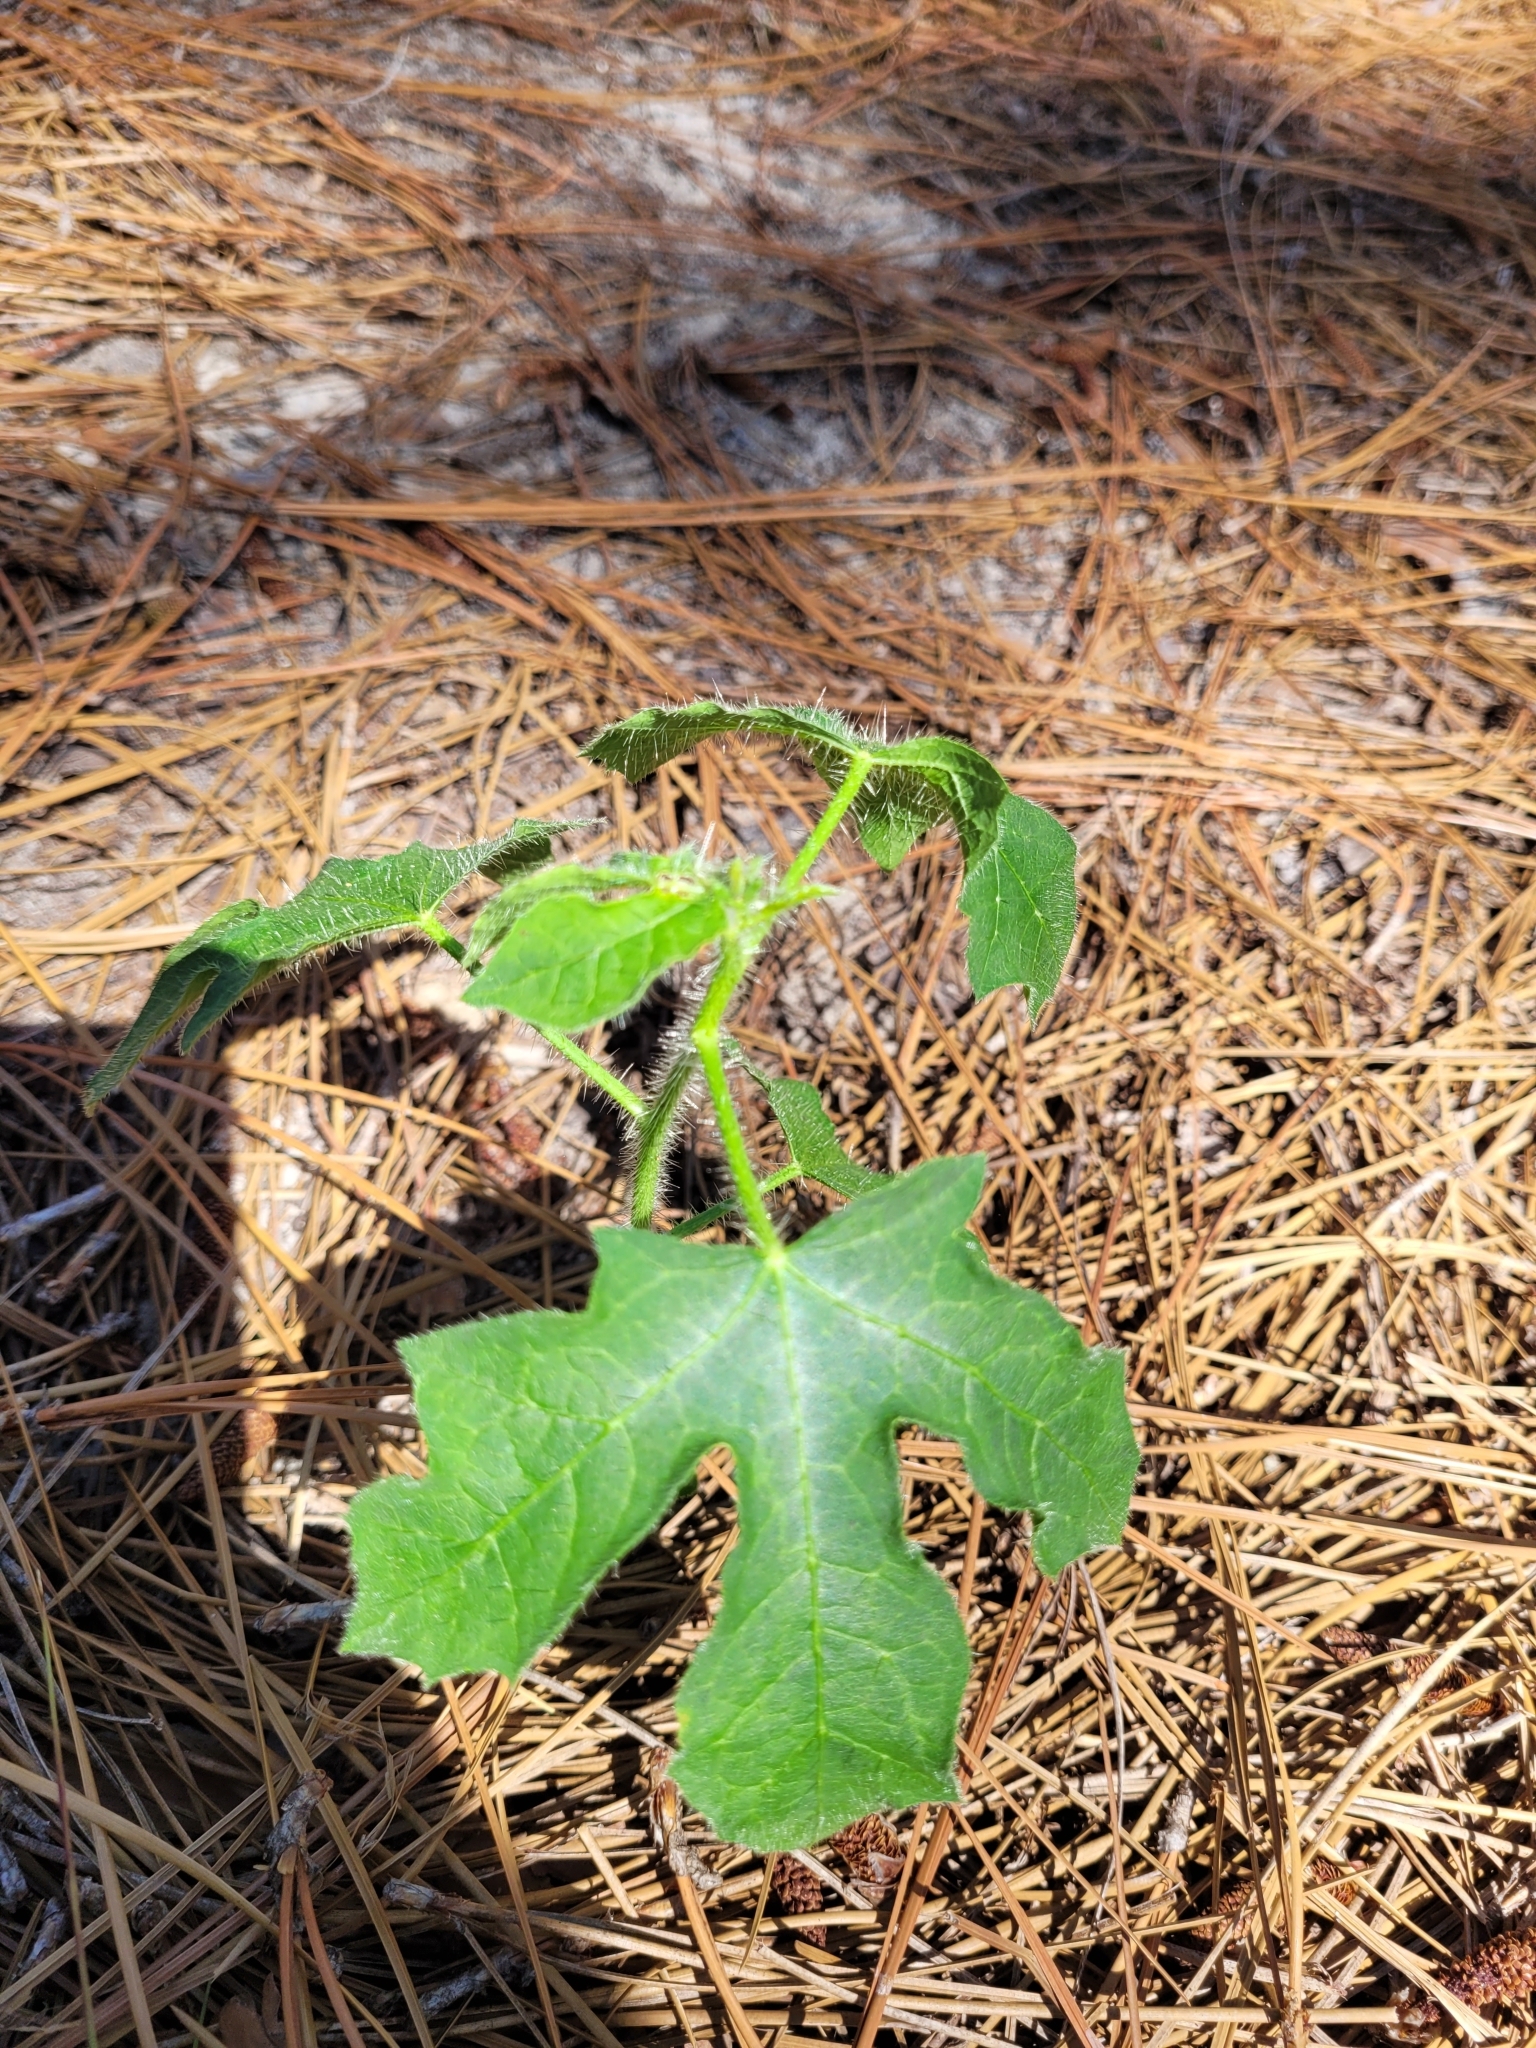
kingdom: Plantae
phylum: Tracheophyta
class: Magnoliopsida
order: Malpighiales
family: Euphorbiaceae
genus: Cnidoscolus
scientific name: Cnidoscolus stimulosus
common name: Bull-nettle
